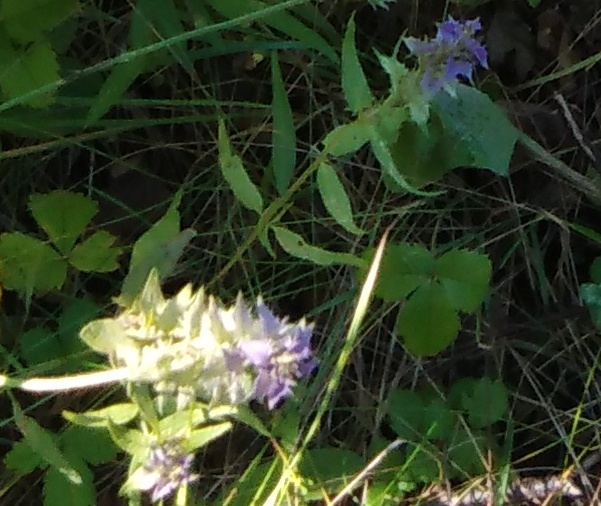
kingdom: Plantae
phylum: Tracheophyta
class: Magnoliopsida
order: Lamiales
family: Orobanchaceae
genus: Melampyrum
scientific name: Melampyrum nemorosum
